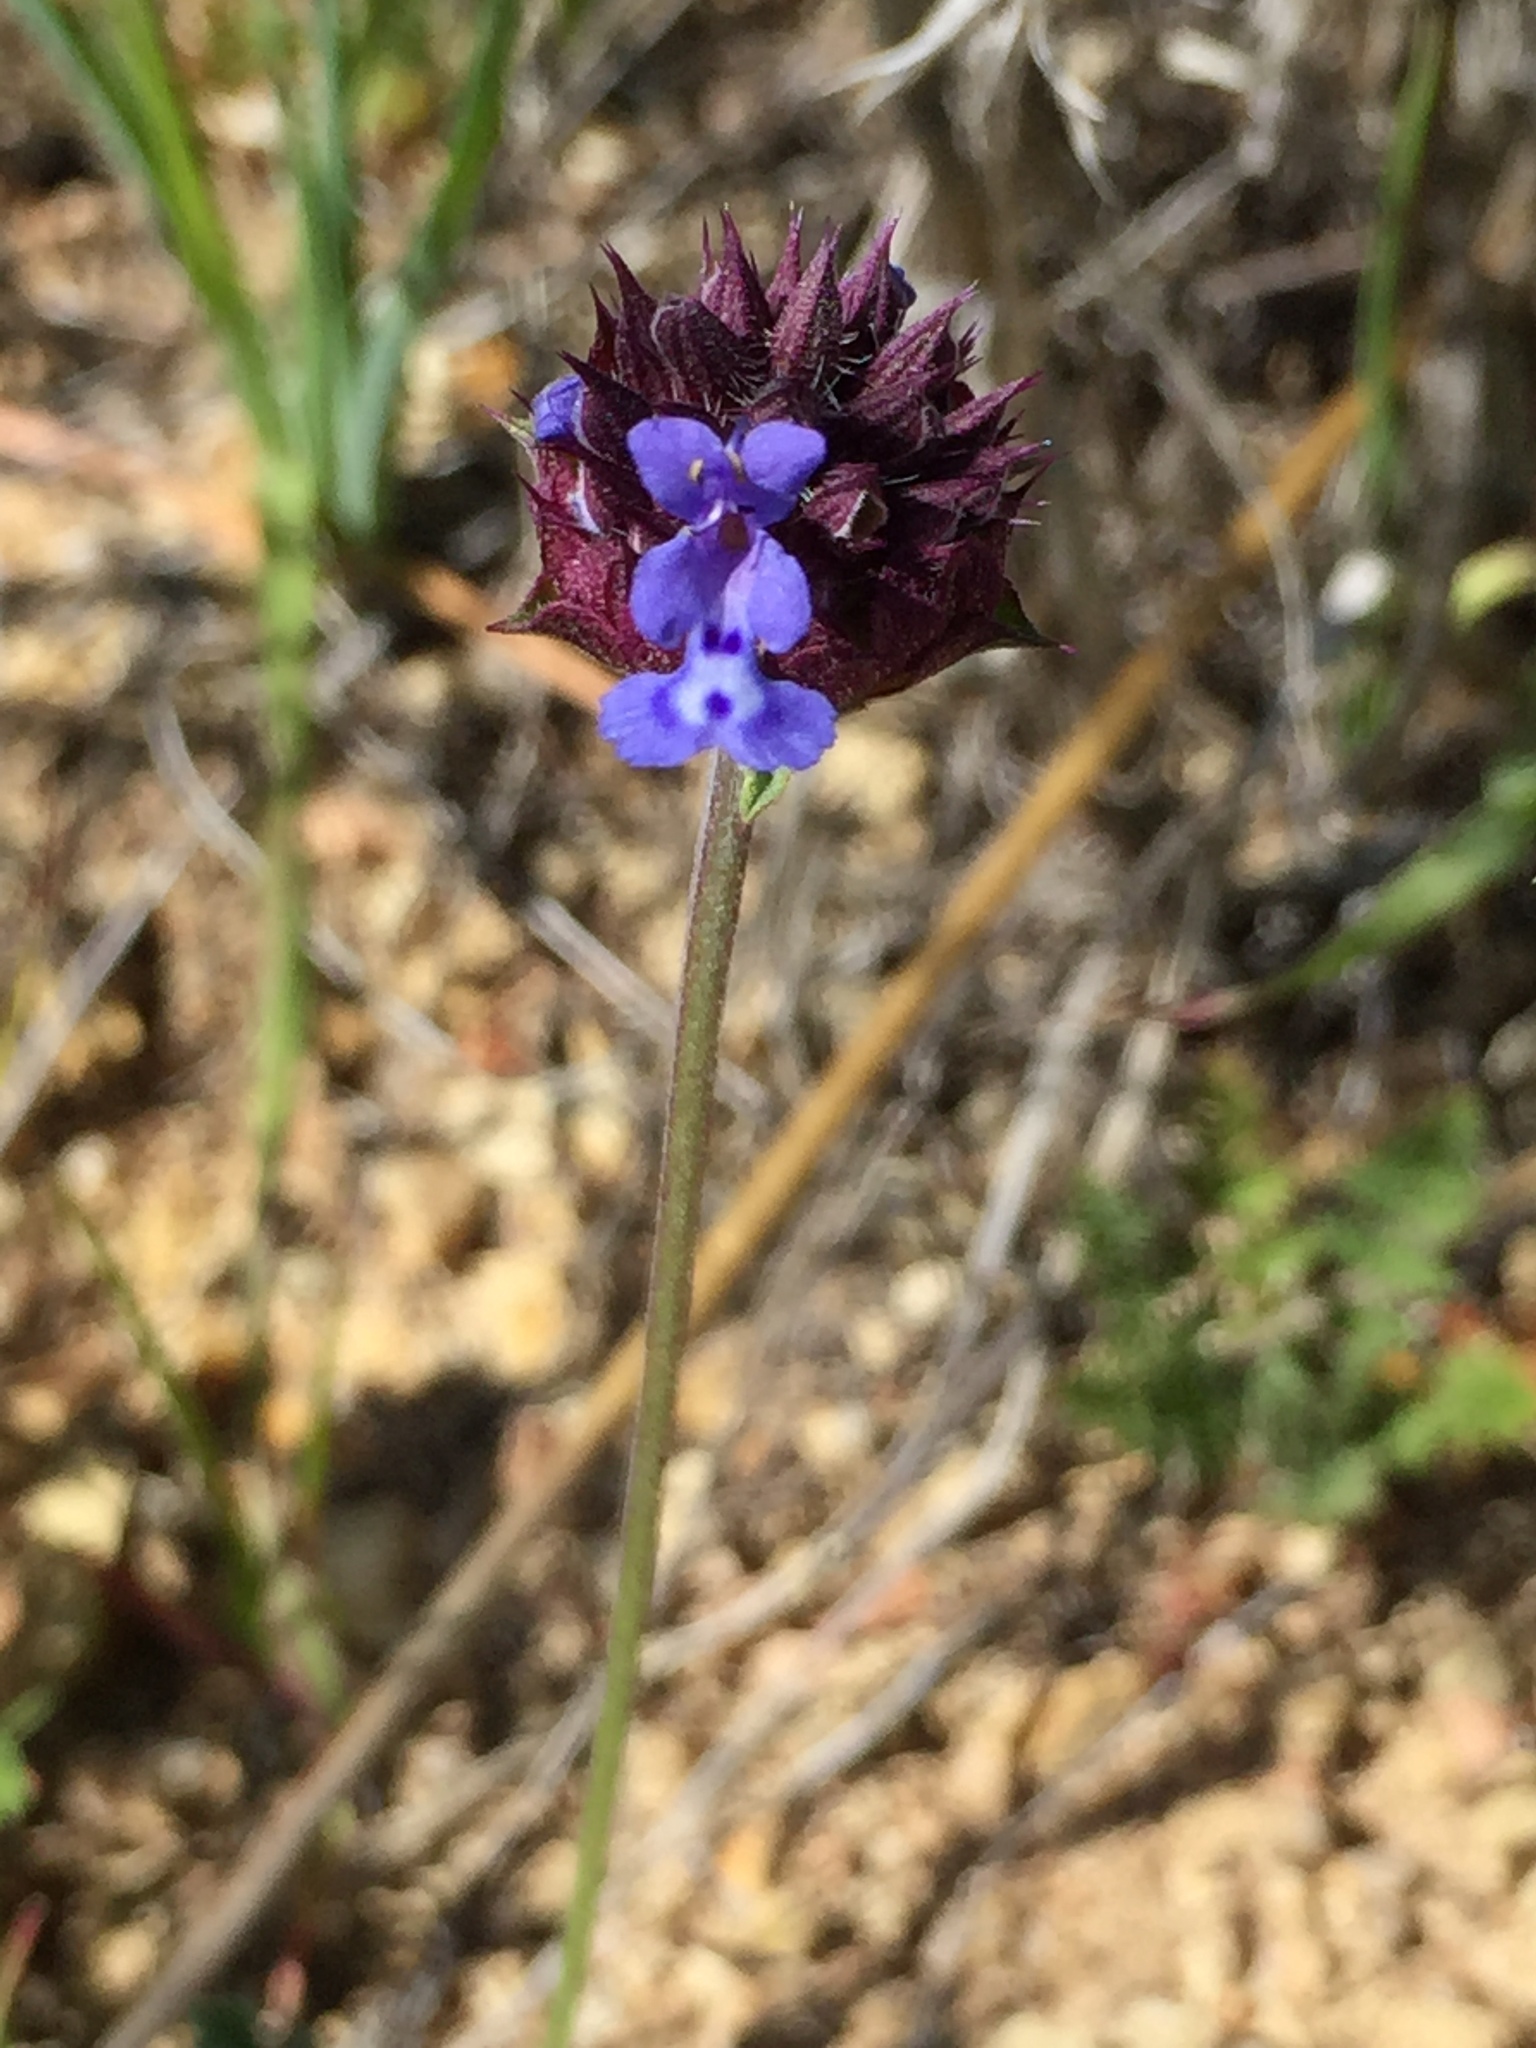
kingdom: Plantae
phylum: Tracheophyta
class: Magnoliopsida
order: Lamiales
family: Lamiaceae
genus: Salvia
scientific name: Salvia columbariae
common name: Chia
